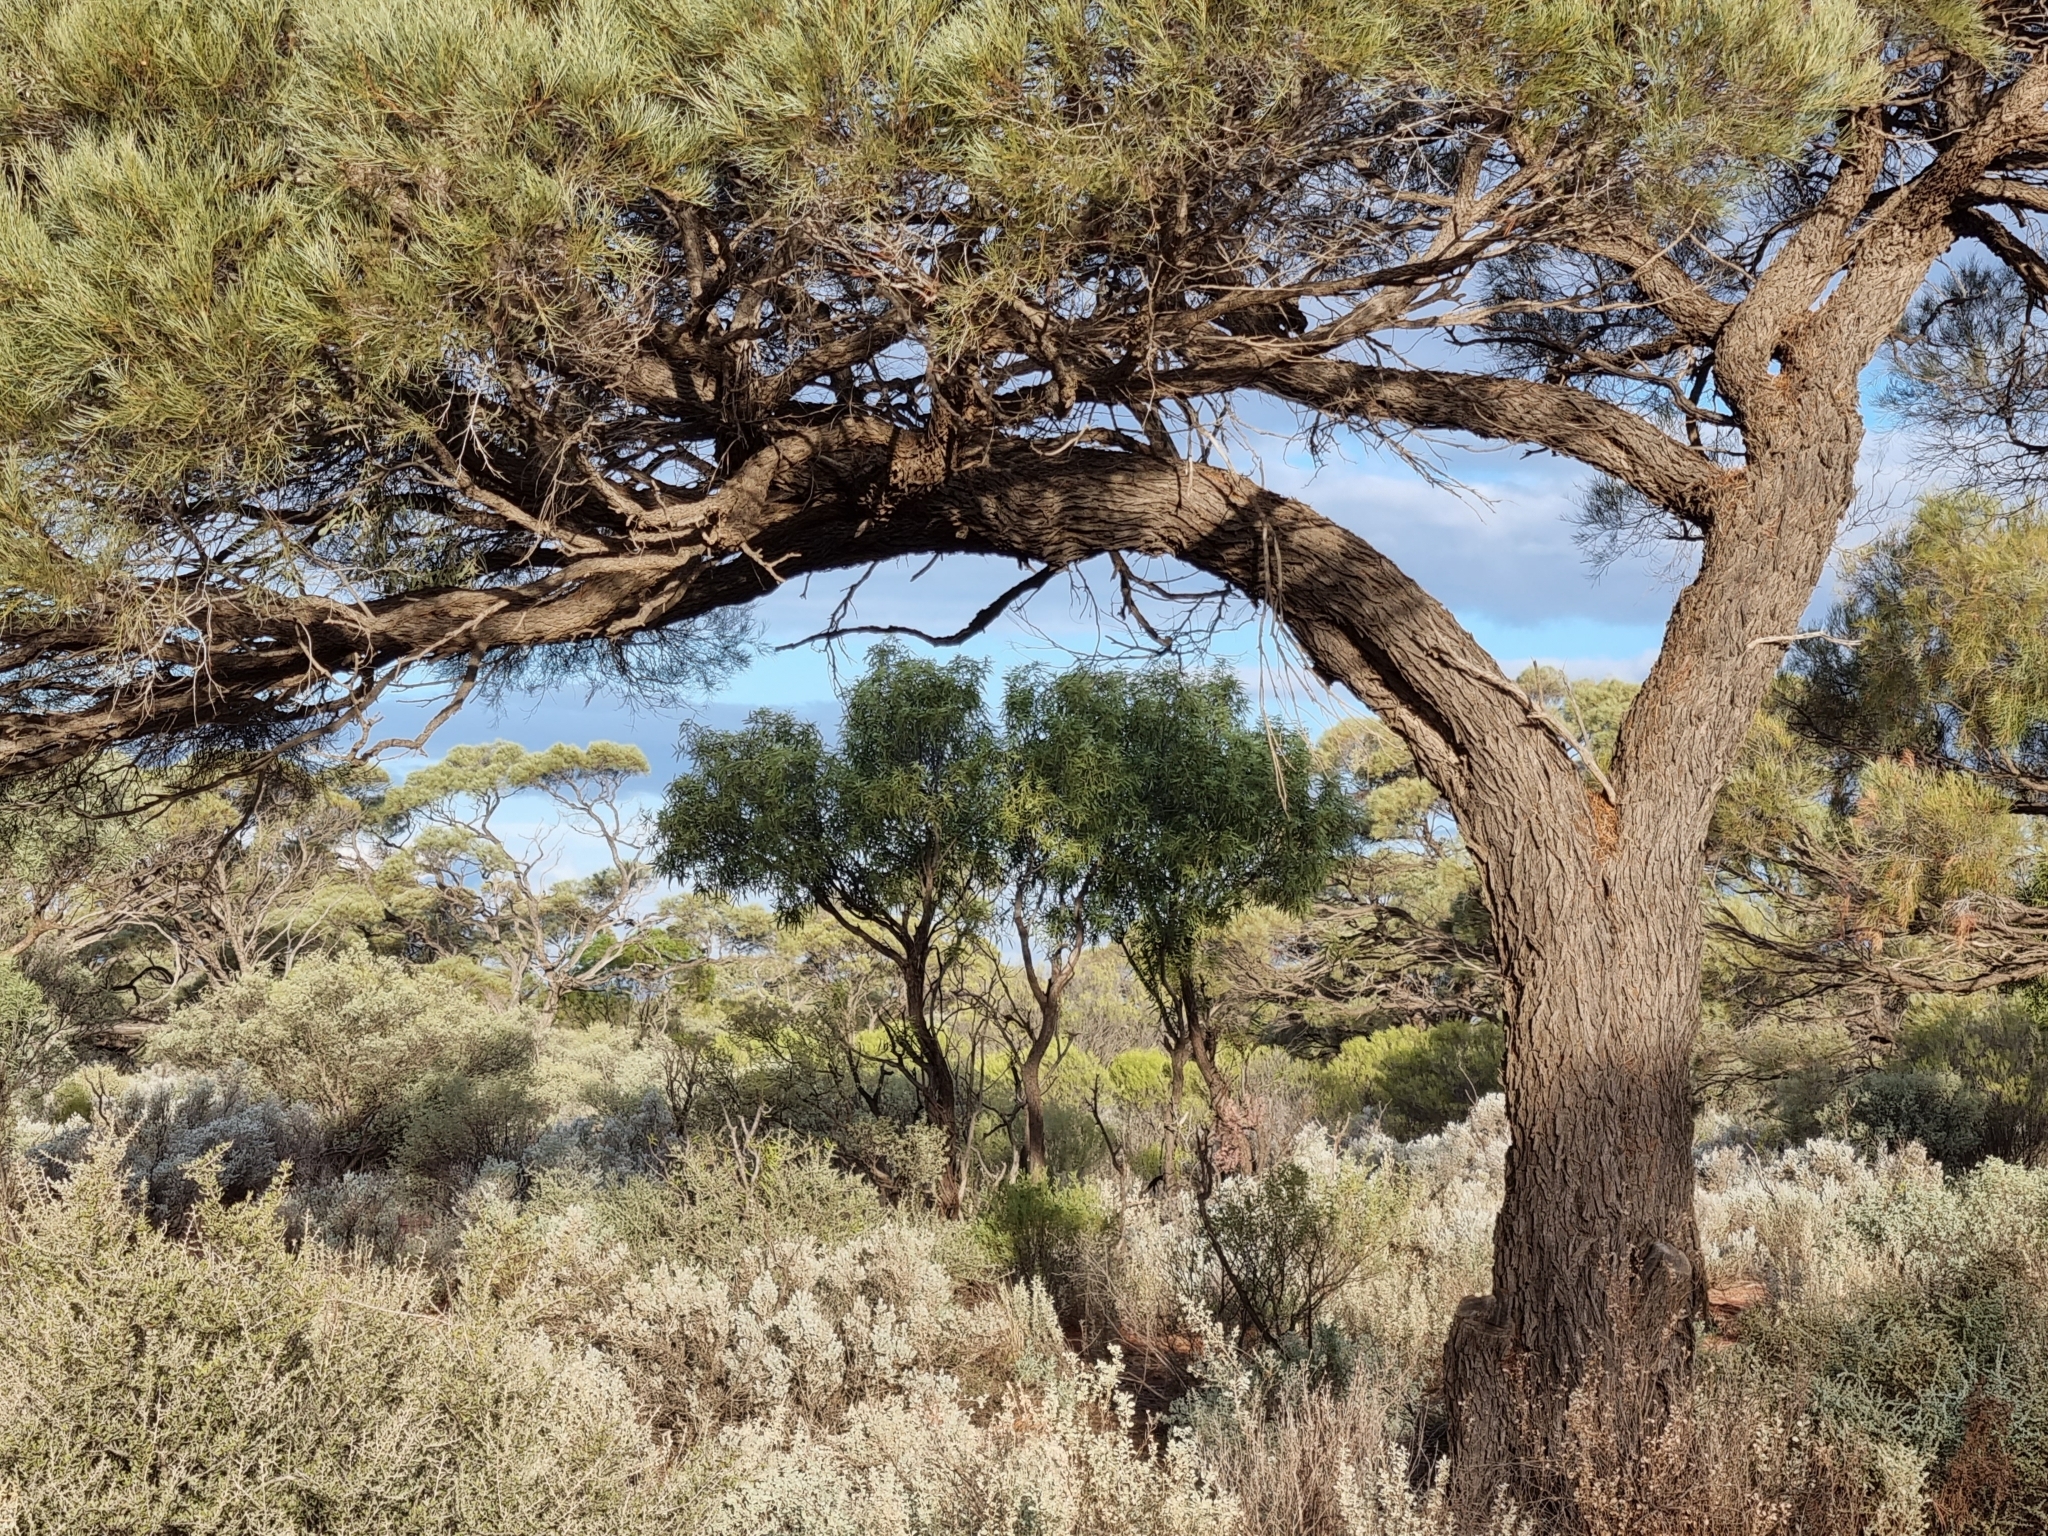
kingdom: Plantae
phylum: Tracheophyta
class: Magnoliopsida
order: Fabales
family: Fabaceae
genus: Acacia
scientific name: Acacia papyrocarpa
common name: Western myall
